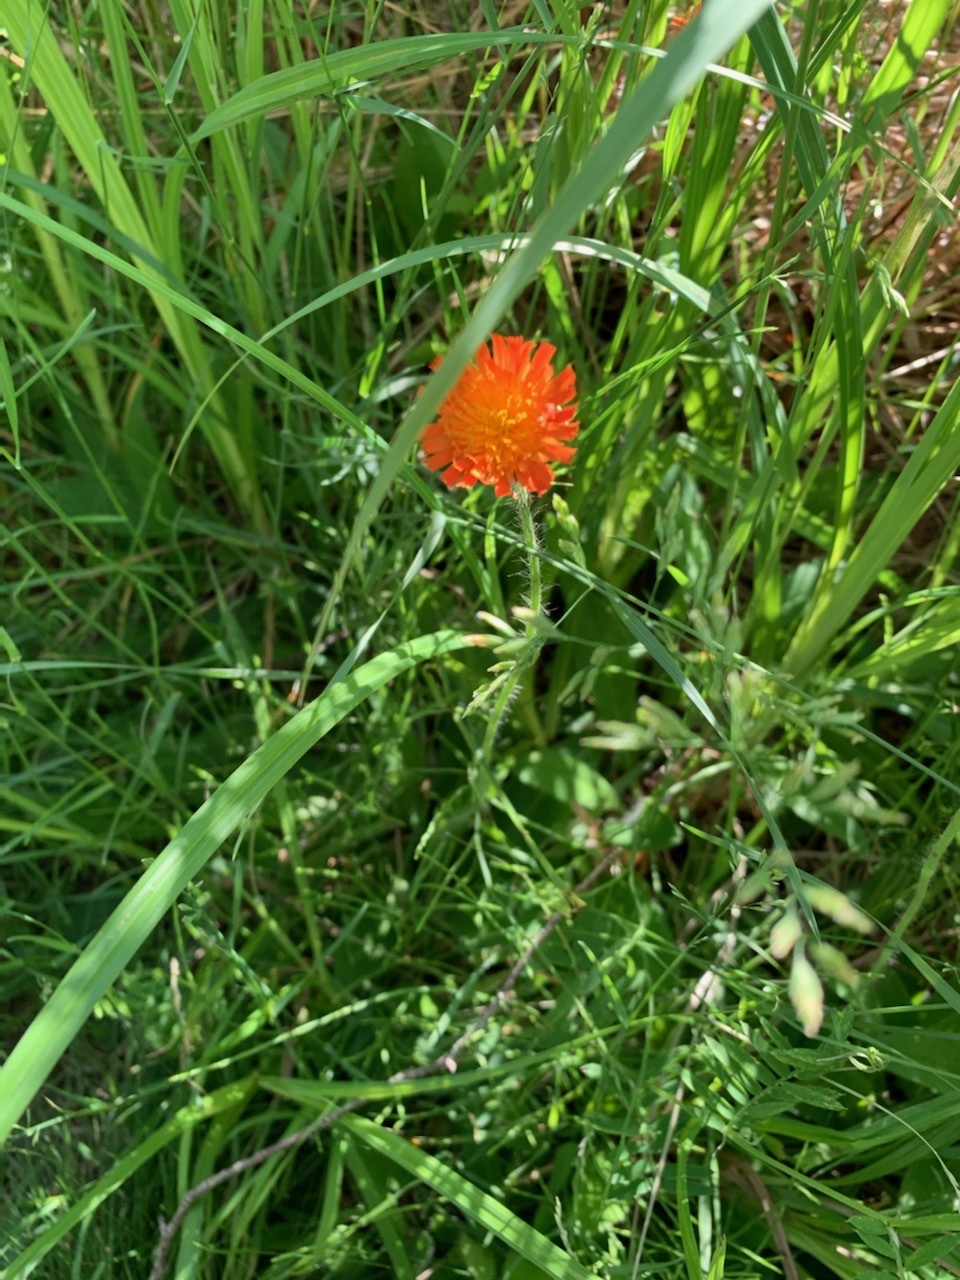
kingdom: Plantae
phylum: Tracheophyta
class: Magnoliopsida
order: Asterales
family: Asteraceae
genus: Pilosella
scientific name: Pilosella aurantiaca
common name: Fox-and-cubs
